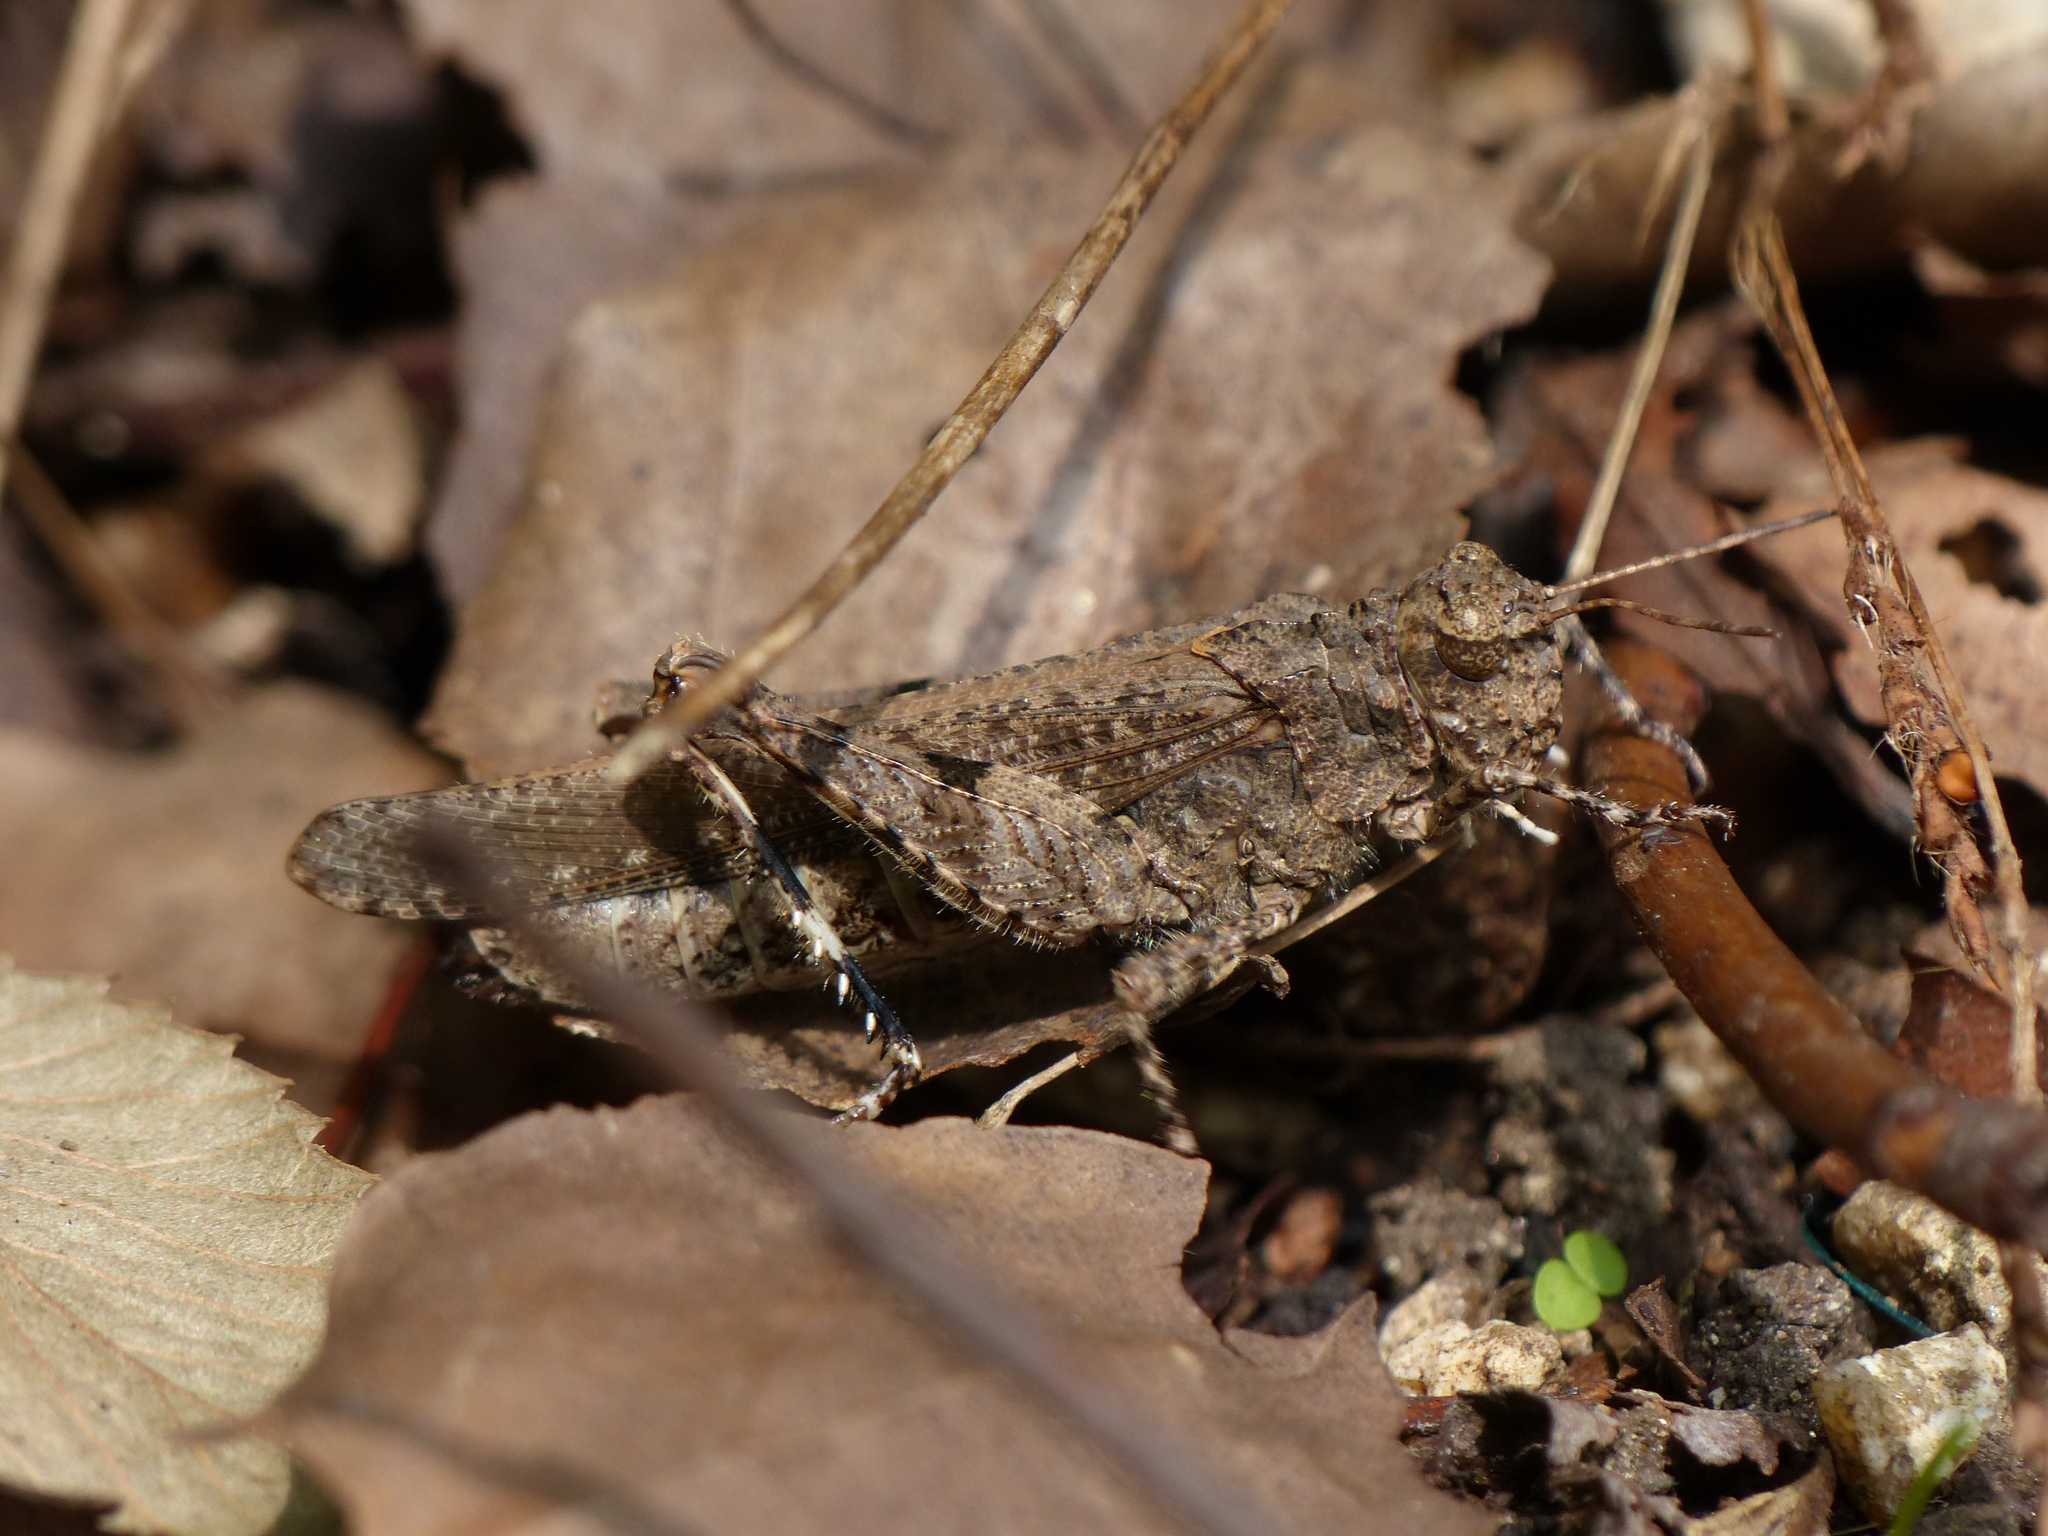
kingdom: Animalia
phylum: Arthropoda
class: Insecta
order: Orthoptera
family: Acrididae
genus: Trilophidia
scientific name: Trilophidia annulata
